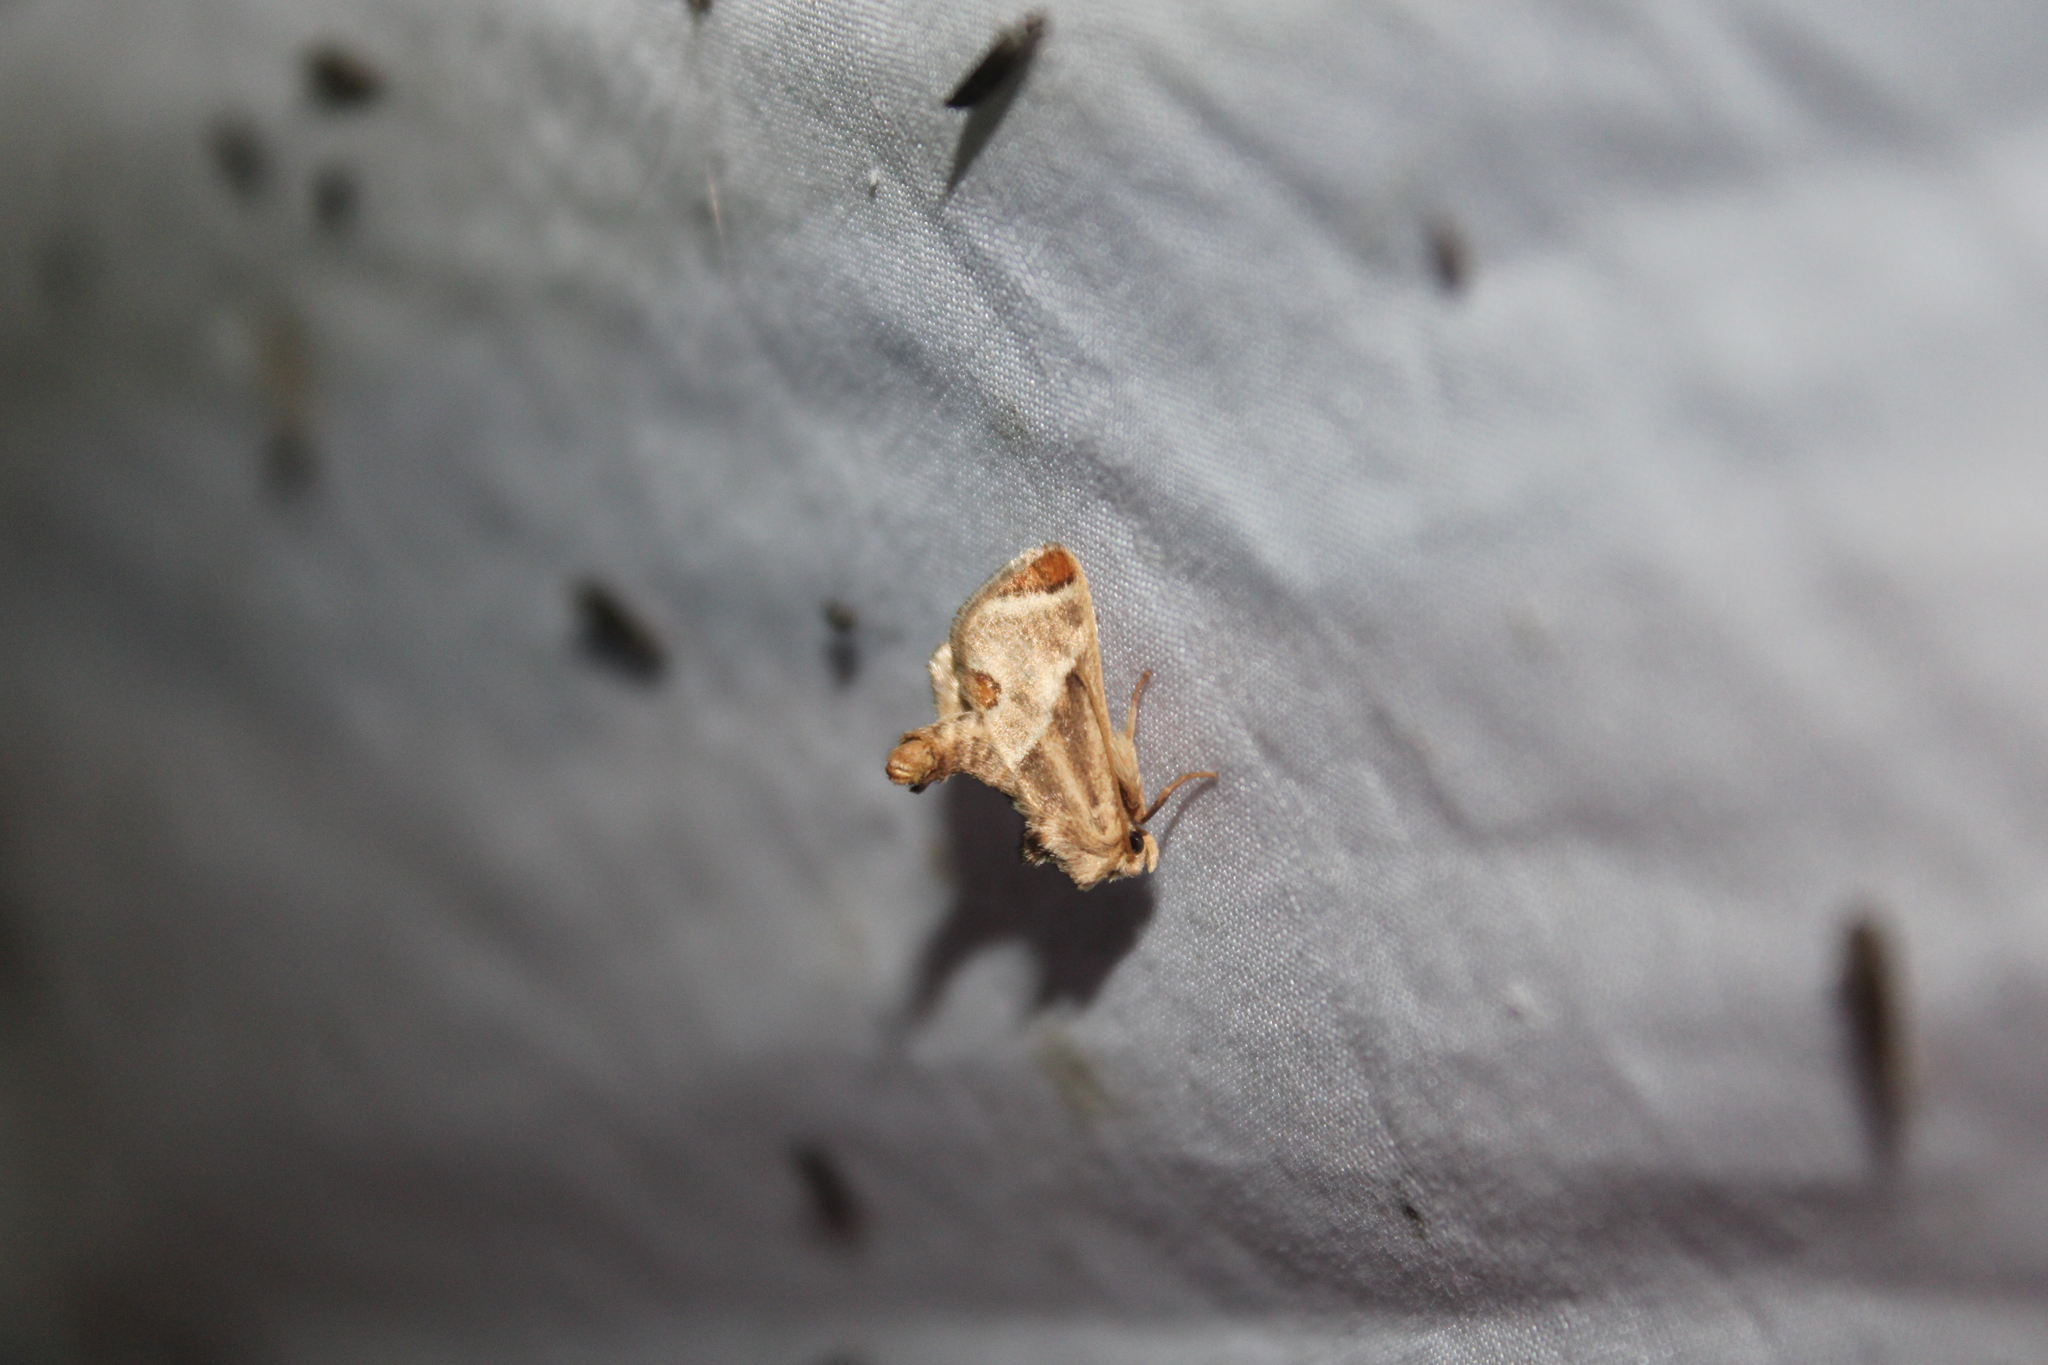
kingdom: Animalia
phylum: Arthropoda
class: Insecta
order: Lepidoptera
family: Limacodidae
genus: Apoda
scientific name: Apoda biguttata
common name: Shagreened slug moth
